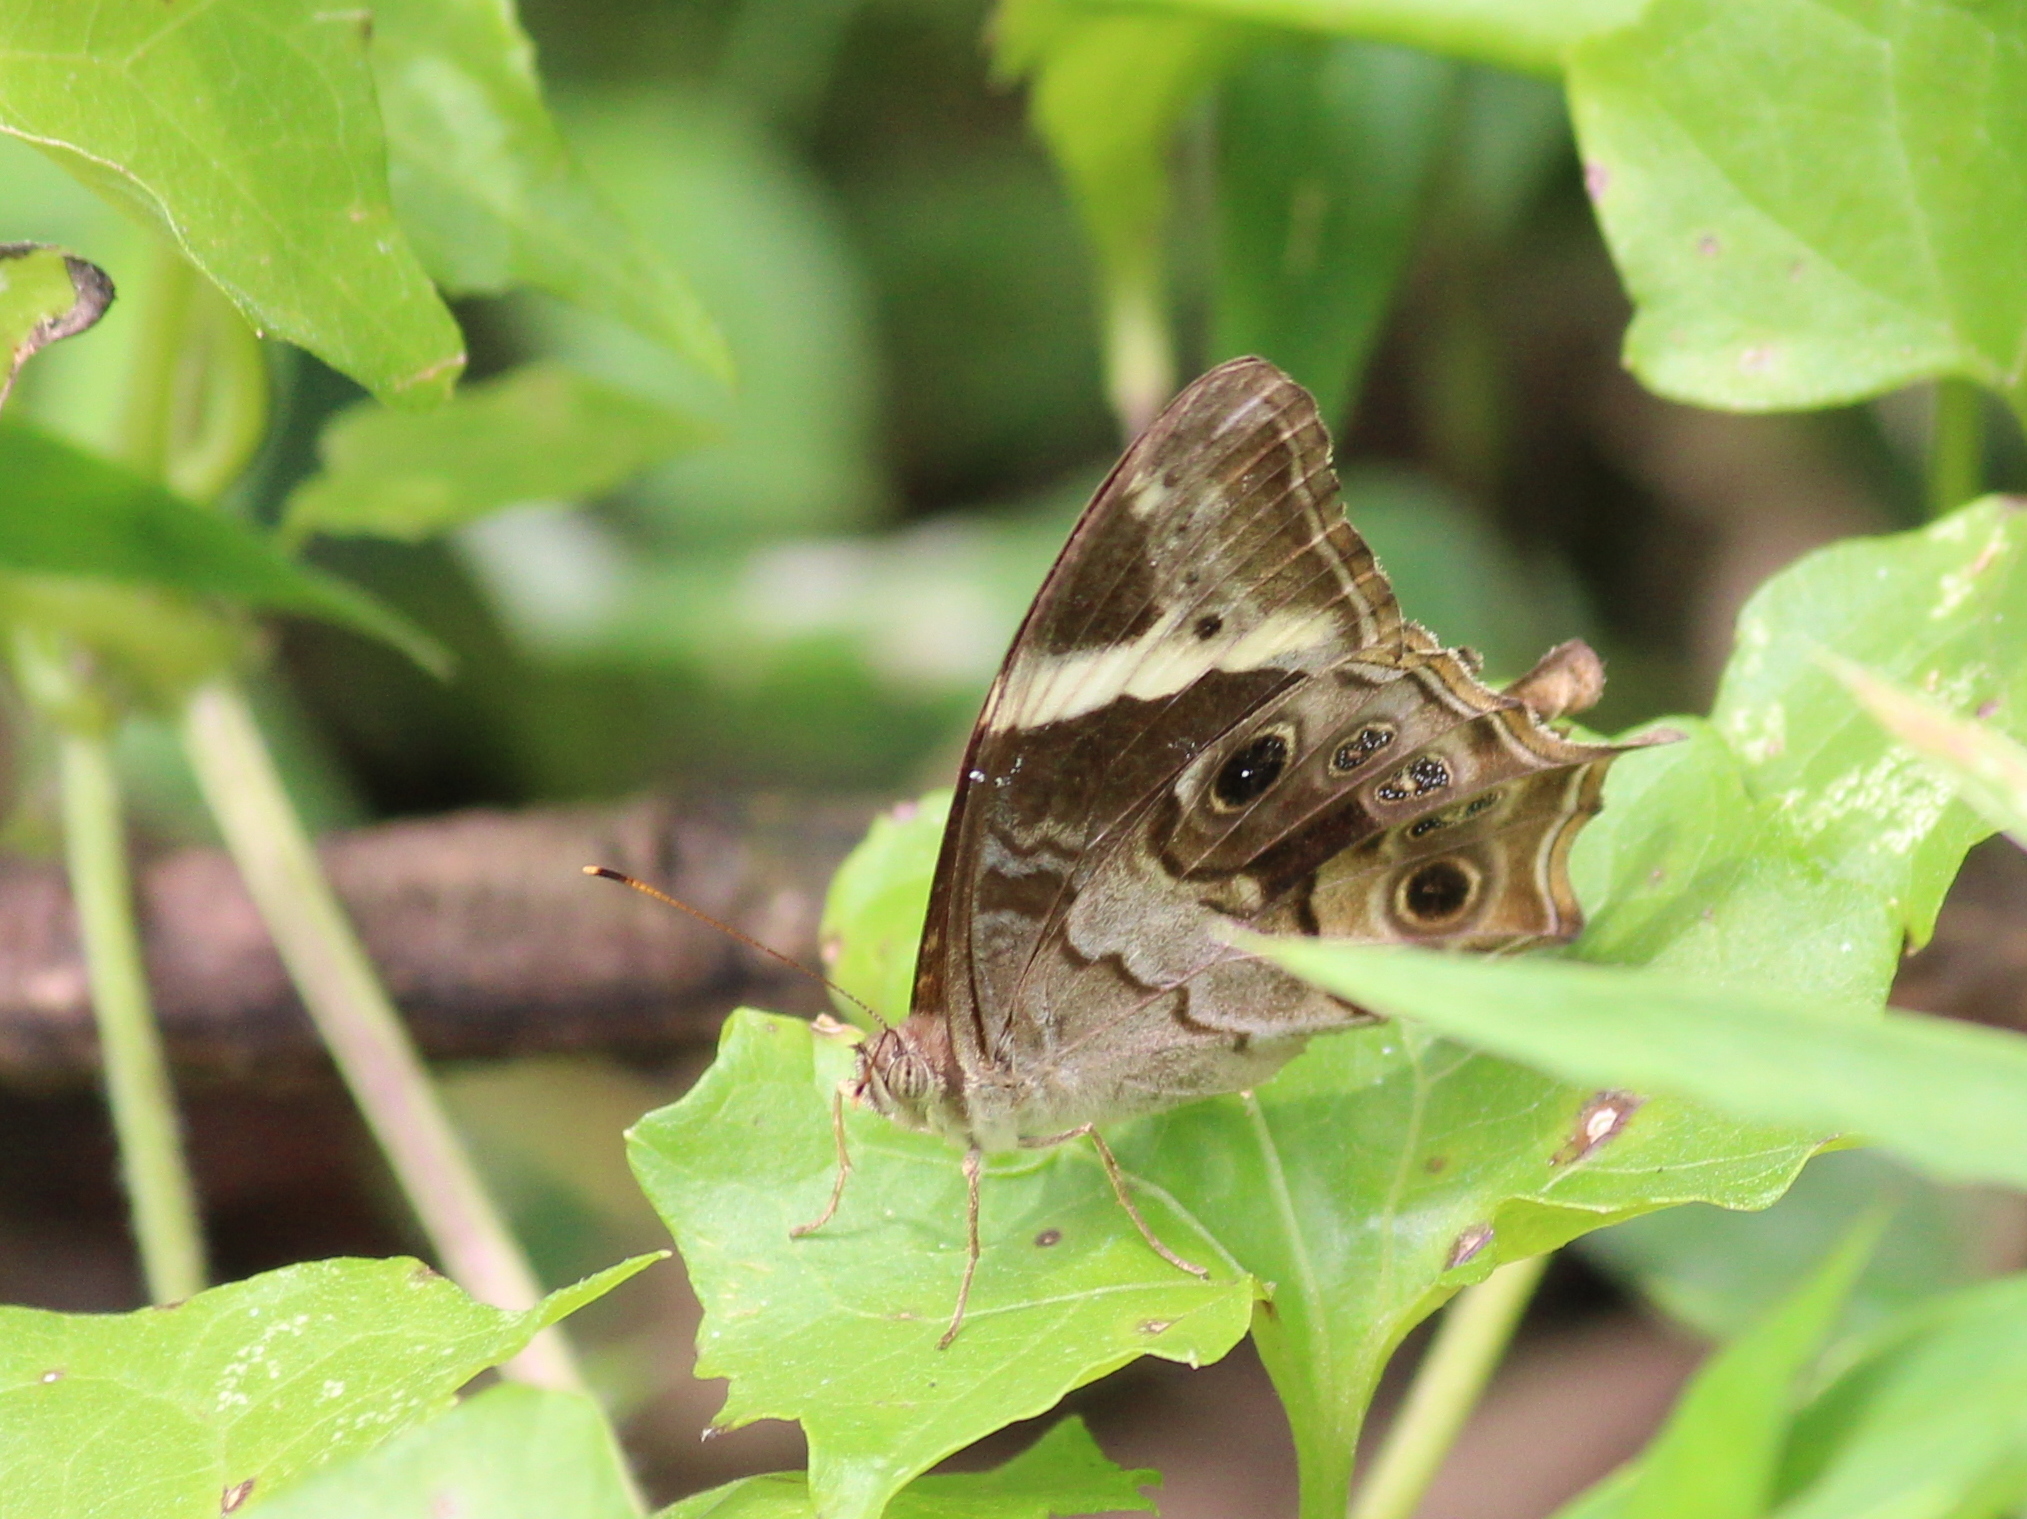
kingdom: Animalia
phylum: Arthropoda
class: Insecta
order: Lepidoptera
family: Nymphalidae
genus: Lethe
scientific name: Lethe drypetis
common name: Tamil treebrown
